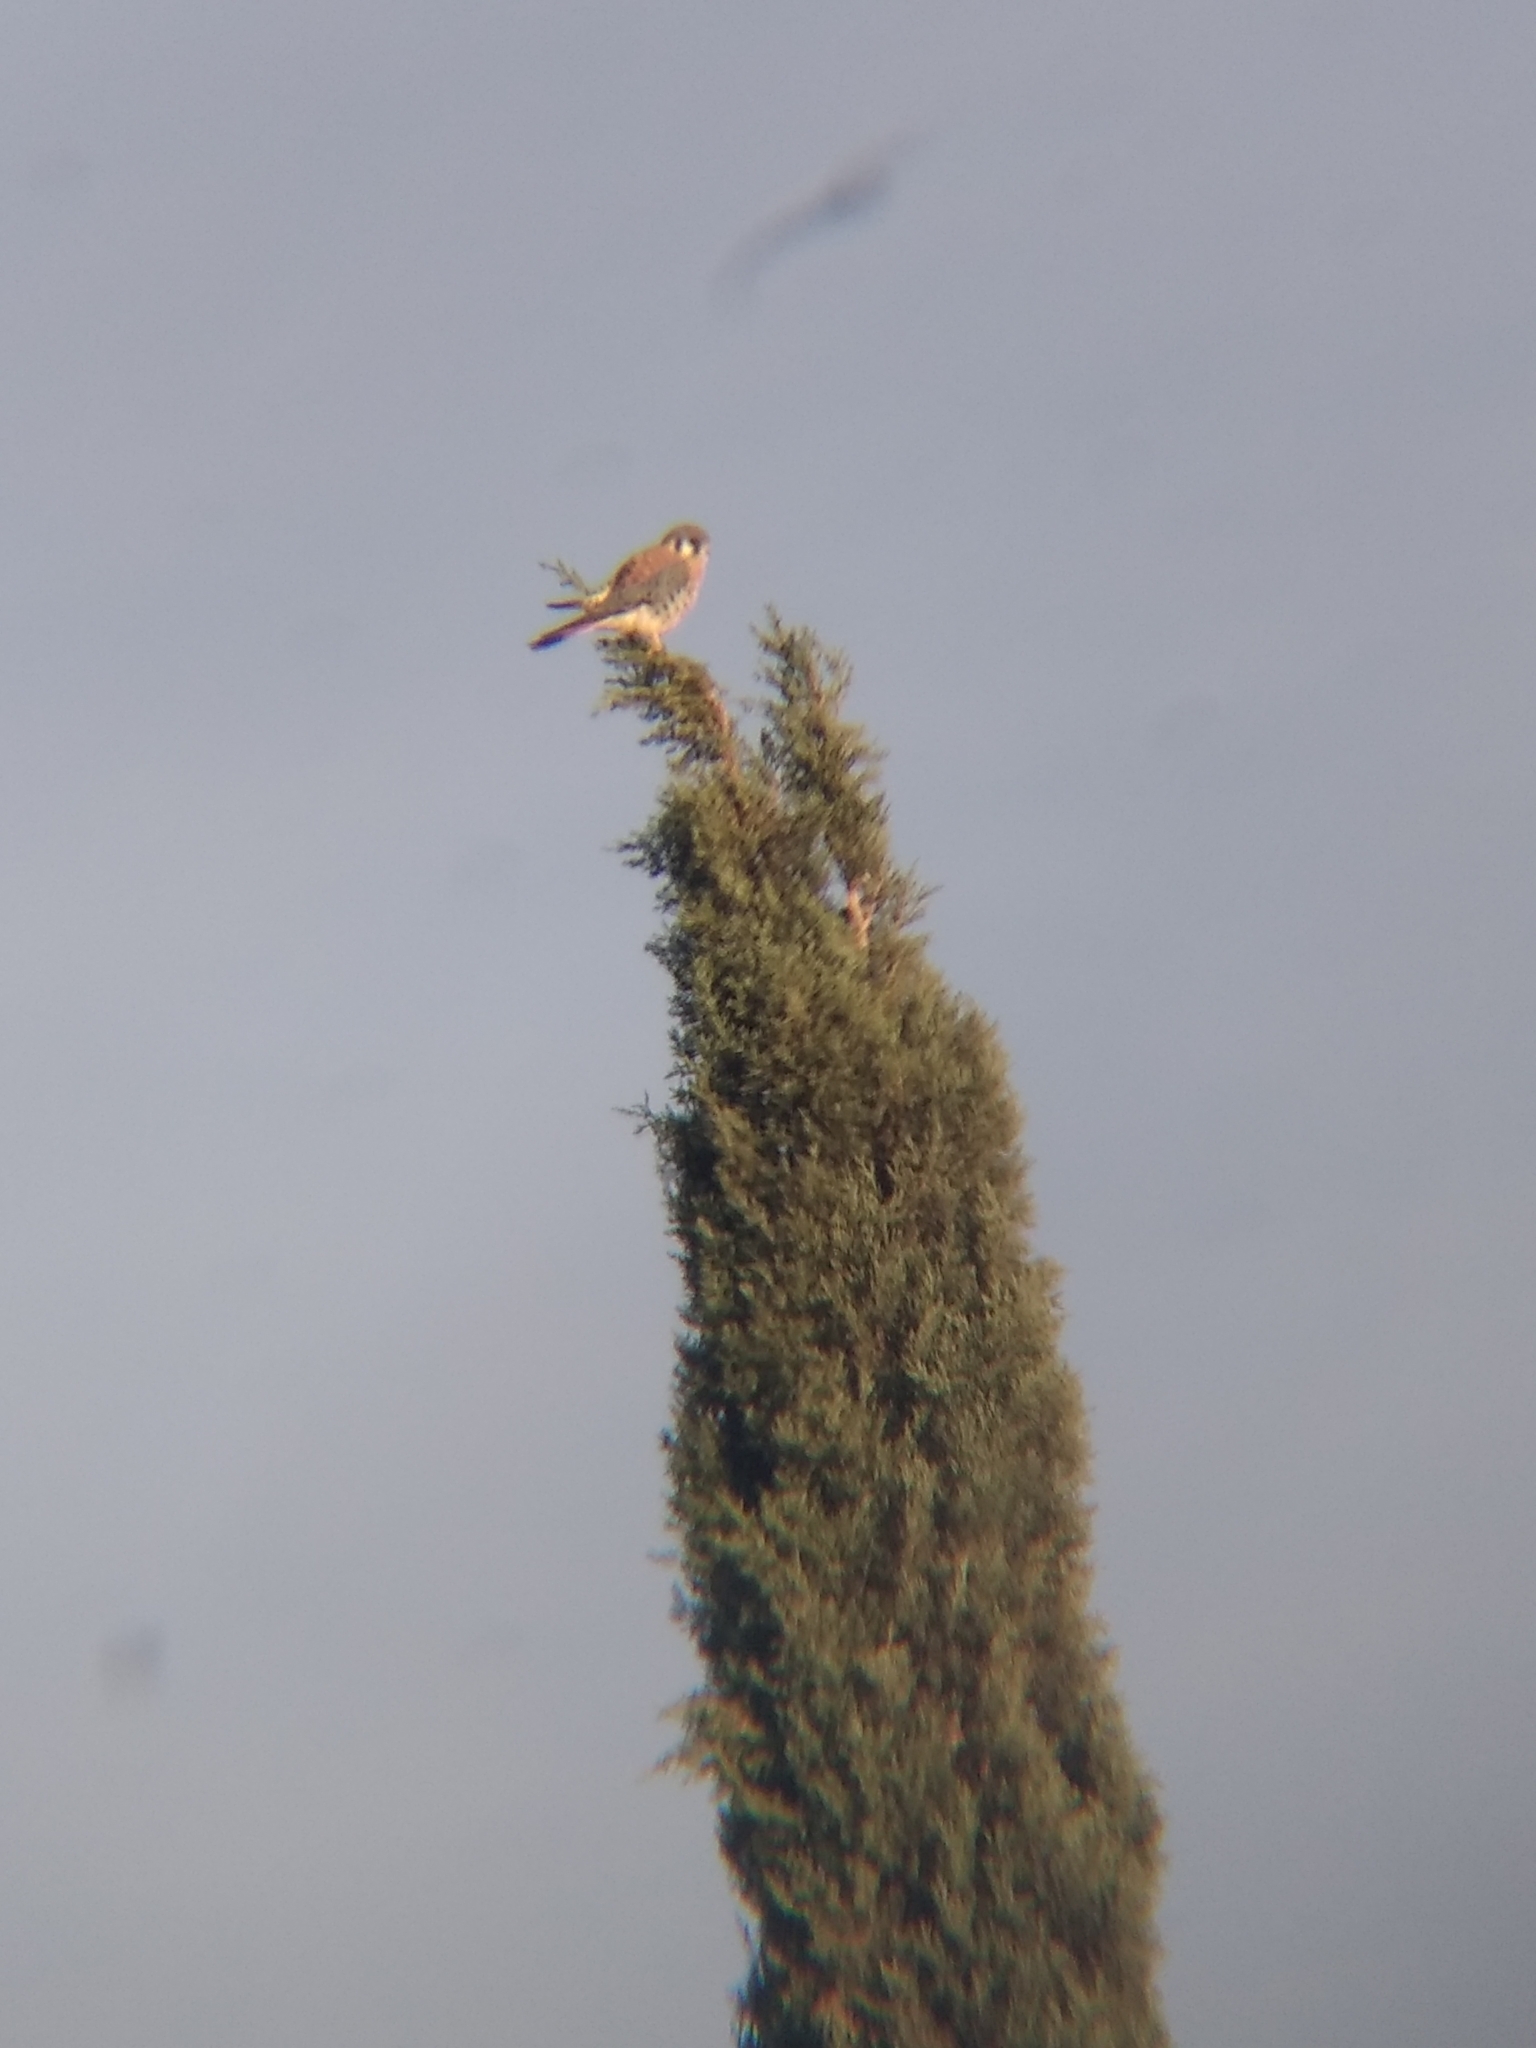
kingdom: Animalia
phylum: Chordata
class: Aves
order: Falconiformes
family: Falconidae
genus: Falco
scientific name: Falco sparverius
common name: American kestrel
